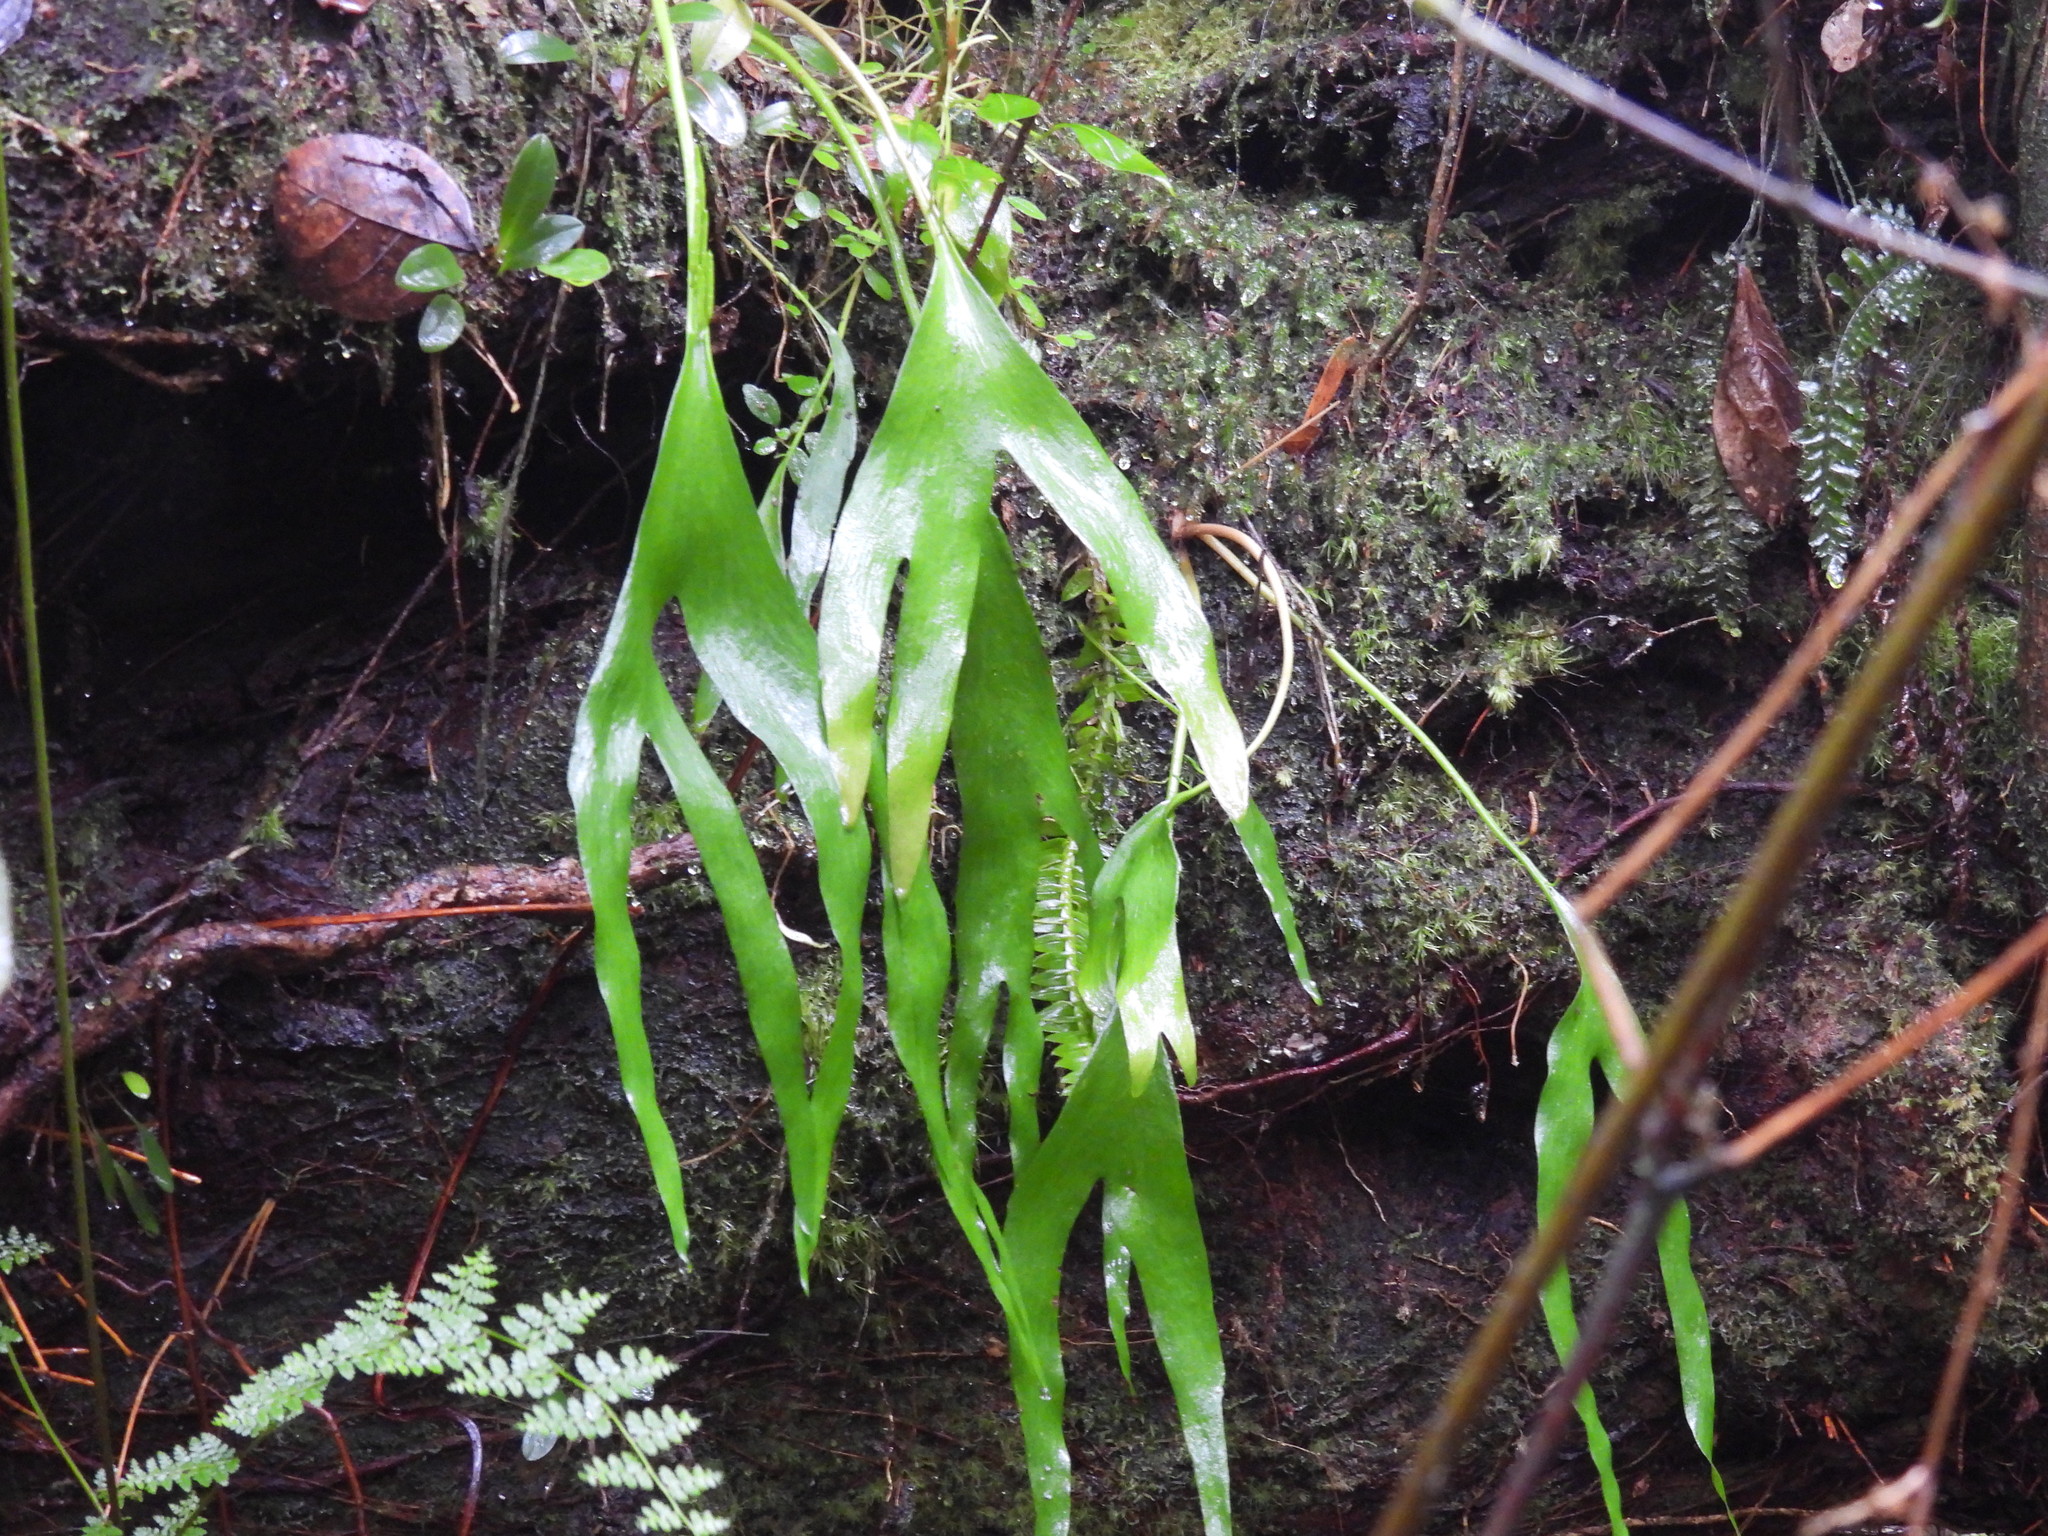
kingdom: Plantae
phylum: Tracheophyta
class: Polypodiopsida
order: Ophioglossales
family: Ophioglossaceae
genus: Cheiroglossa
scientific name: Cheiroglossa palmata
